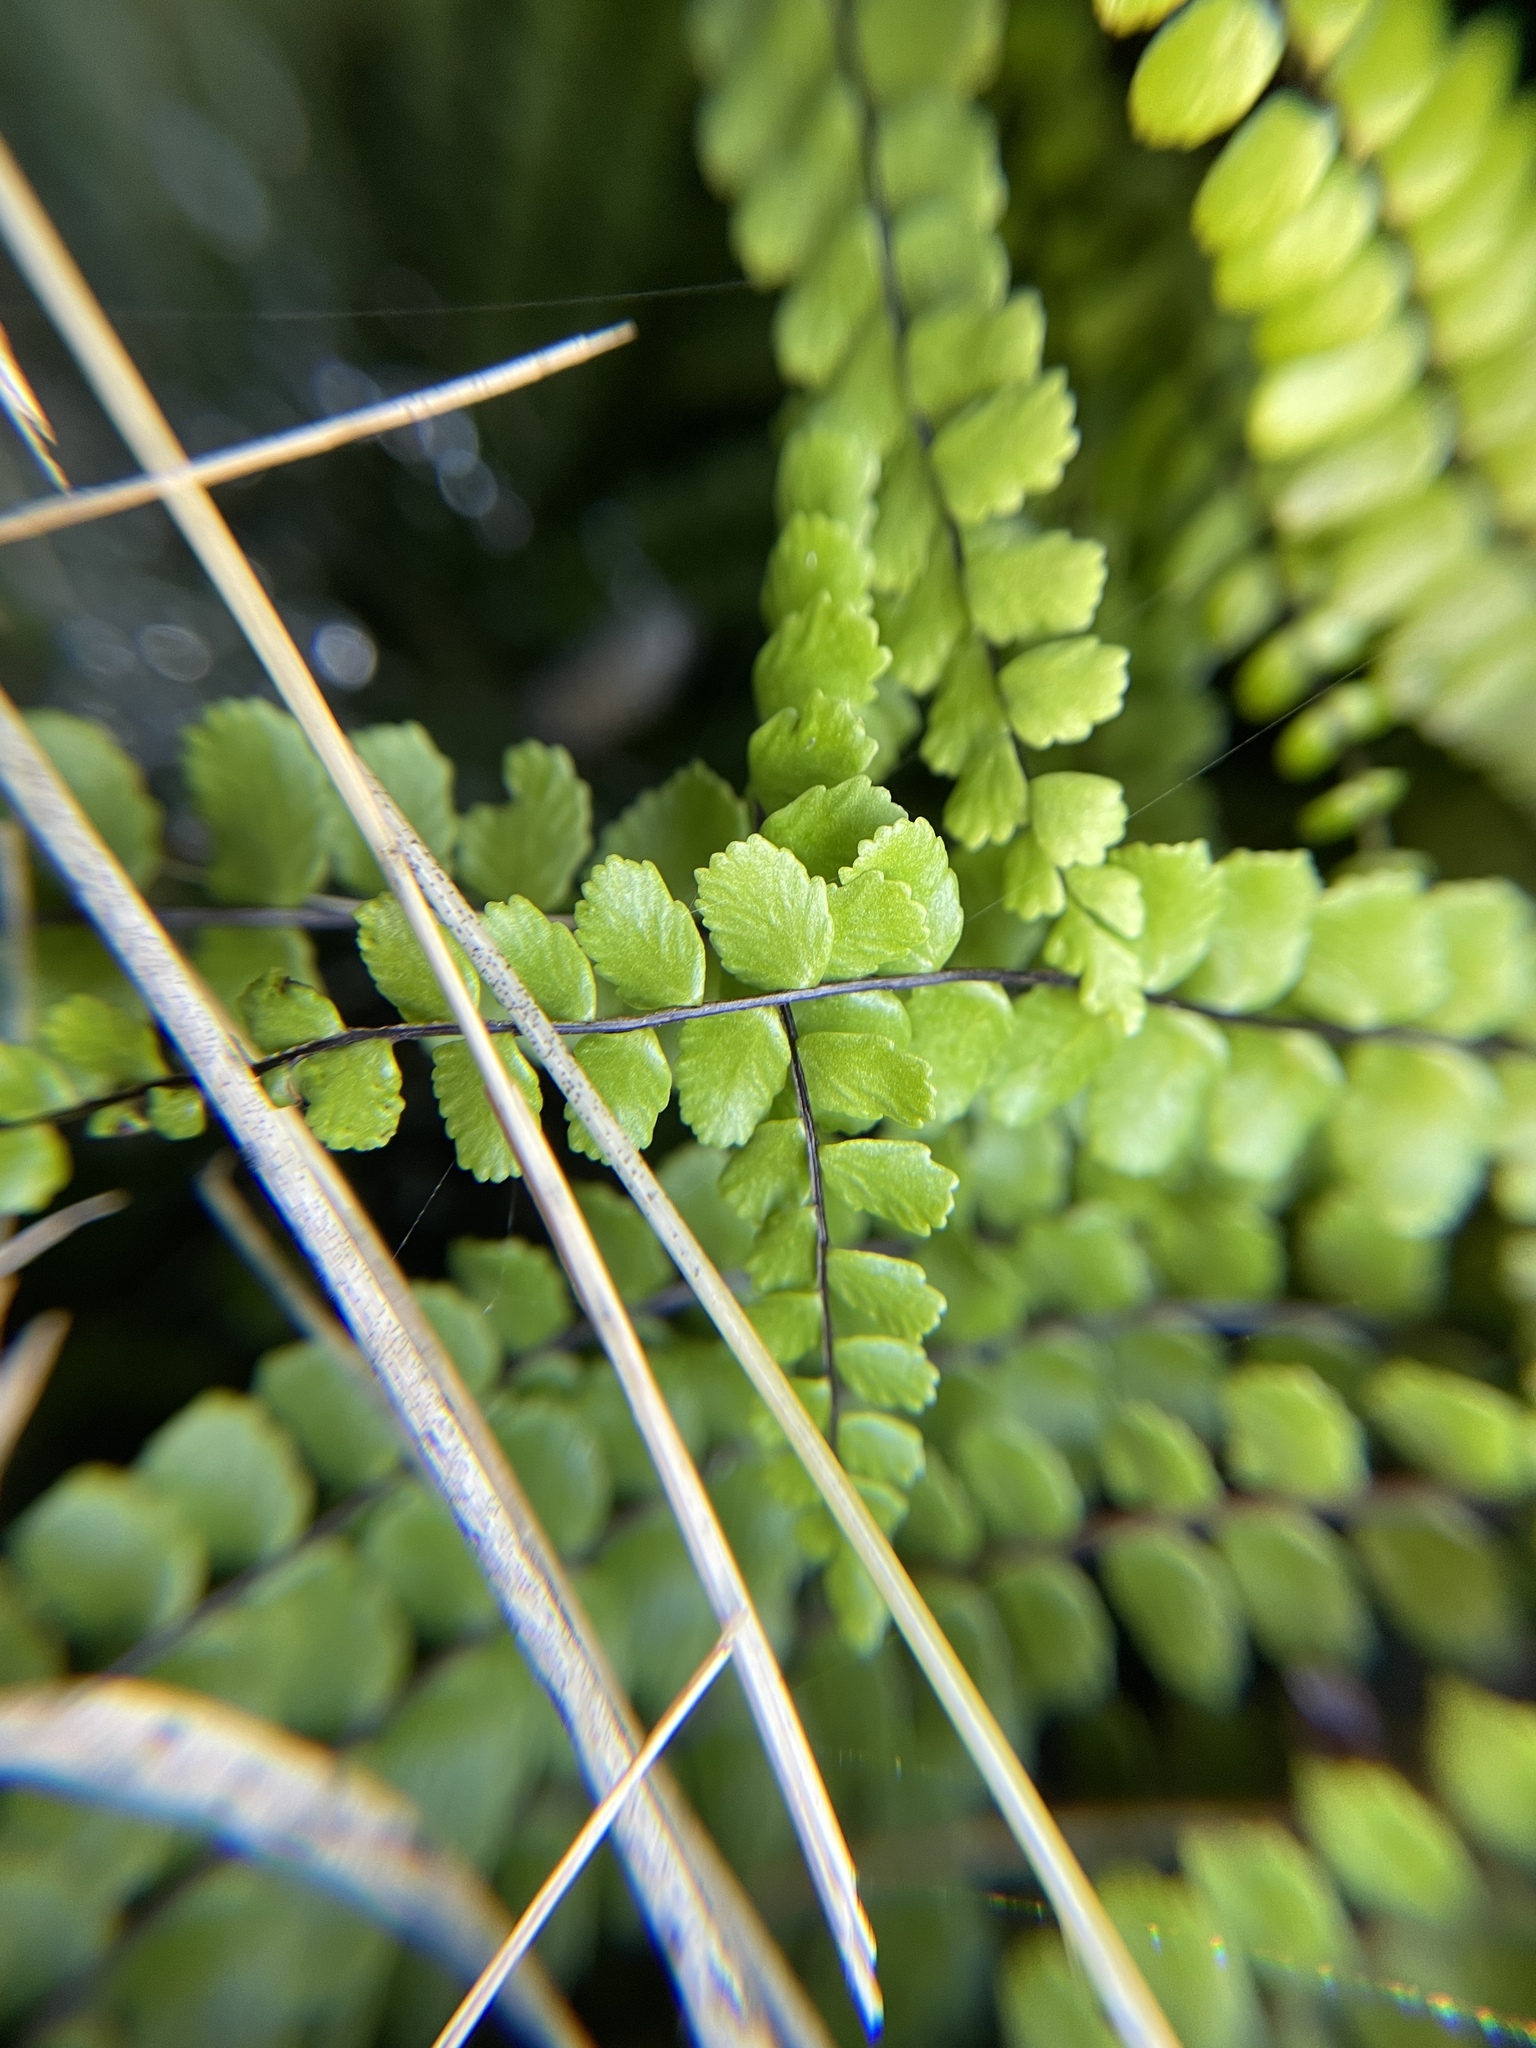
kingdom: Plantae
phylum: Tracheophyta
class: Polypodiopsida
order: Polypodiales
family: Aspleniaceae
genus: Asplenium
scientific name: Asplenium trichomanes
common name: Maidenhair spleenwort
